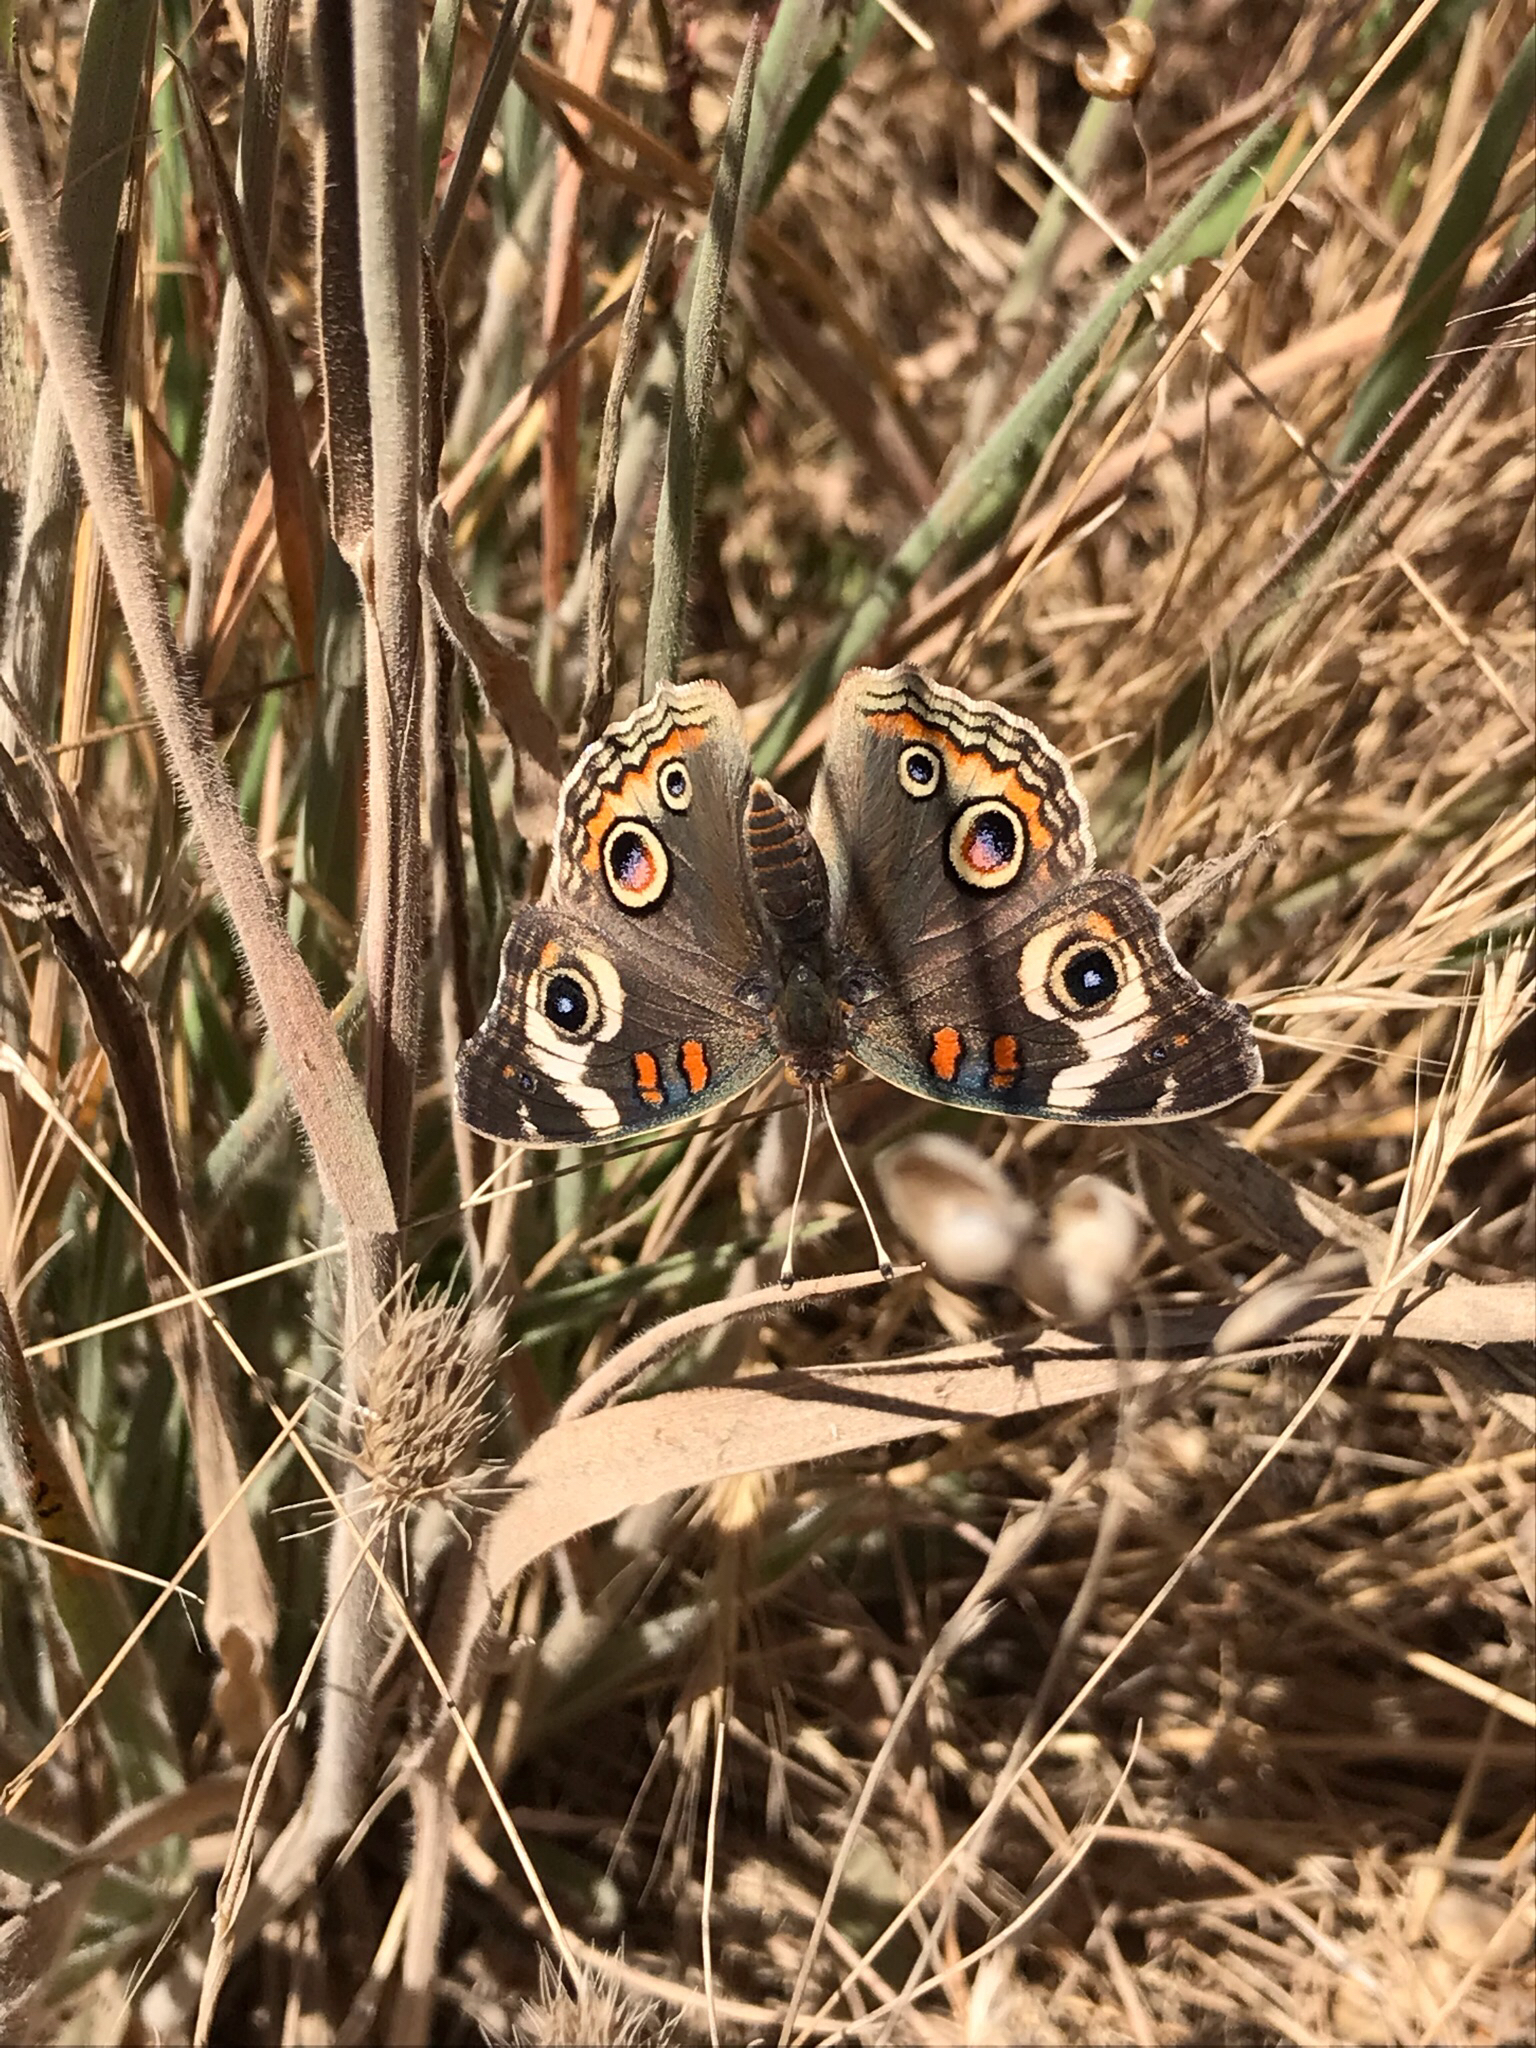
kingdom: Animalia
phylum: Arthropoda
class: Insecta
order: Lepidoptera
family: Nymphalidae
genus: Junonia
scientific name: Junonia grisea
